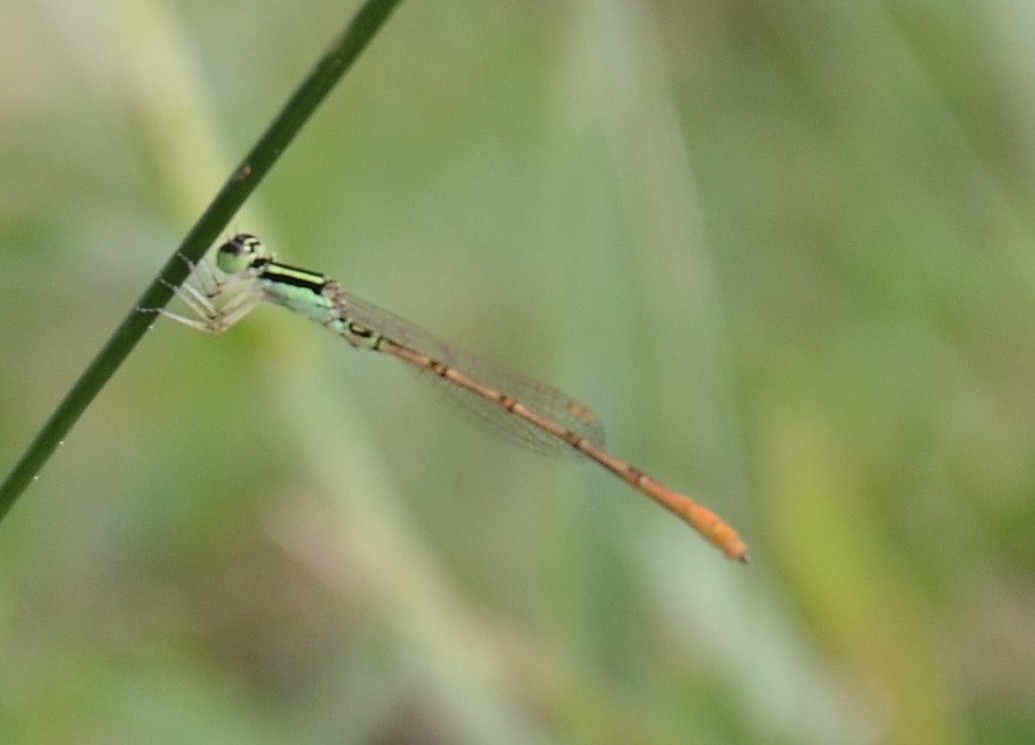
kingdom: Animalia
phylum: Arthropoda
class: Insecta
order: Odonata
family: Coenagrionidae
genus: Agriocnemis
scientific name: Agriocnemis keralensis
